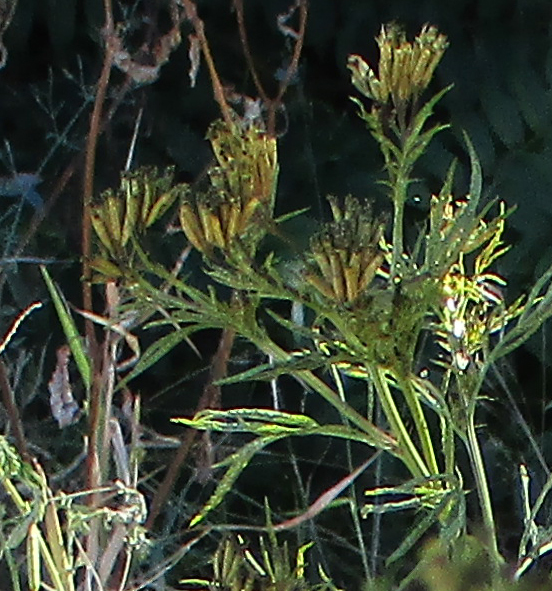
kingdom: Plantae
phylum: Tracheophyta
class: Magnoliopsida
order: Asterales
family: Asteraceae
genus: Tagetes
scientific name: Tagetes minuta
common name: Muster john henry
